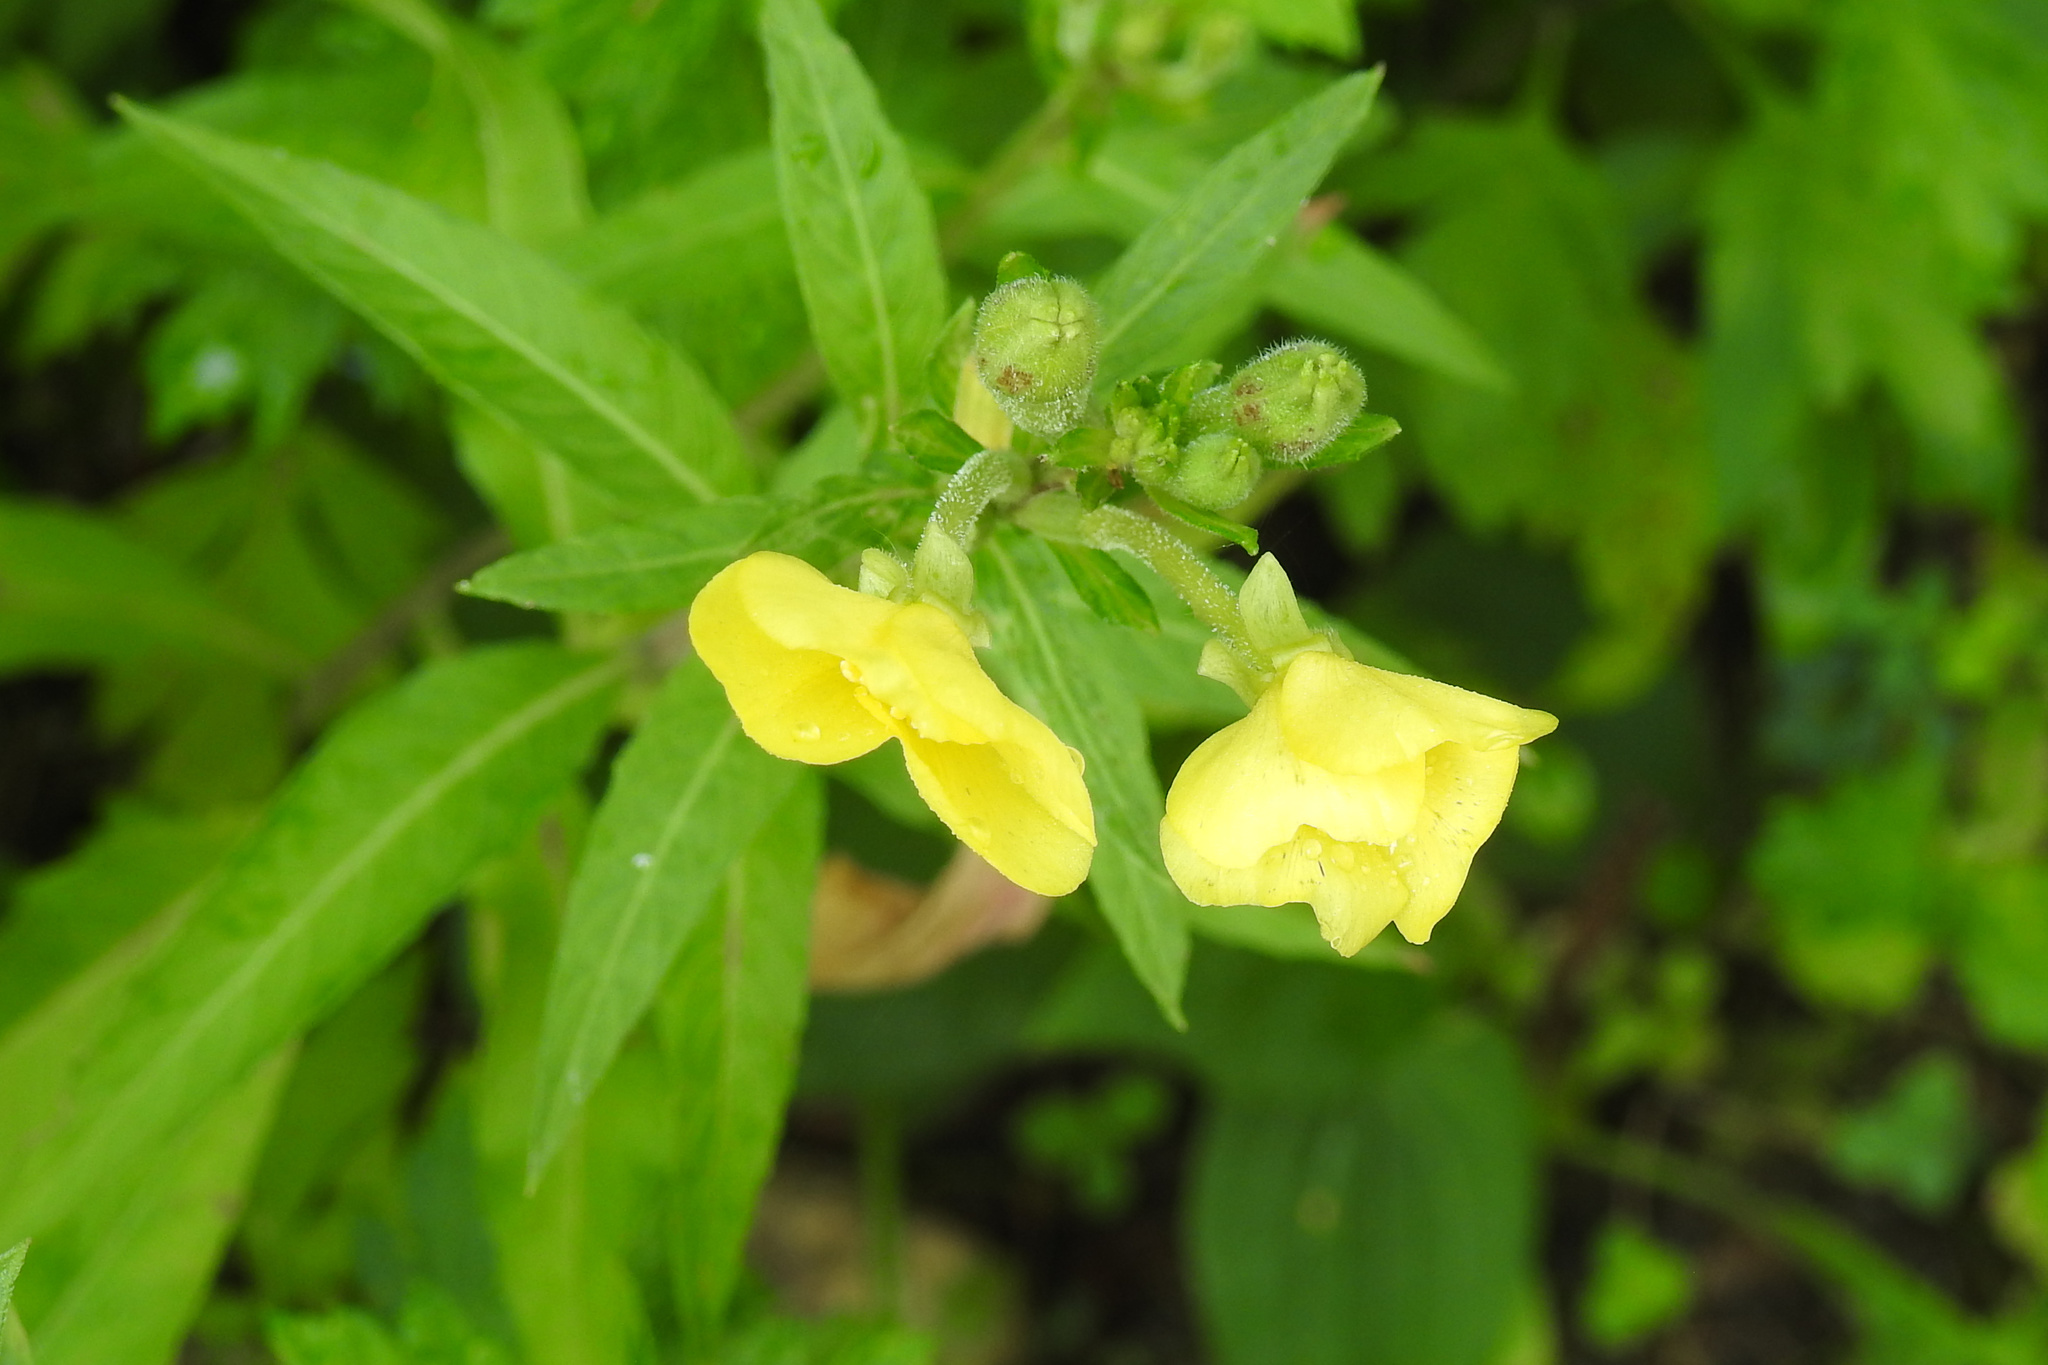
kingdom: Plantae
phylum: Tracheophyta
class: Magnoliopsida
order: Myrtales
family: Onagraceae
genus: Oenothera
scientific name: Oenothera biennis
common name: Common evening-primrose
